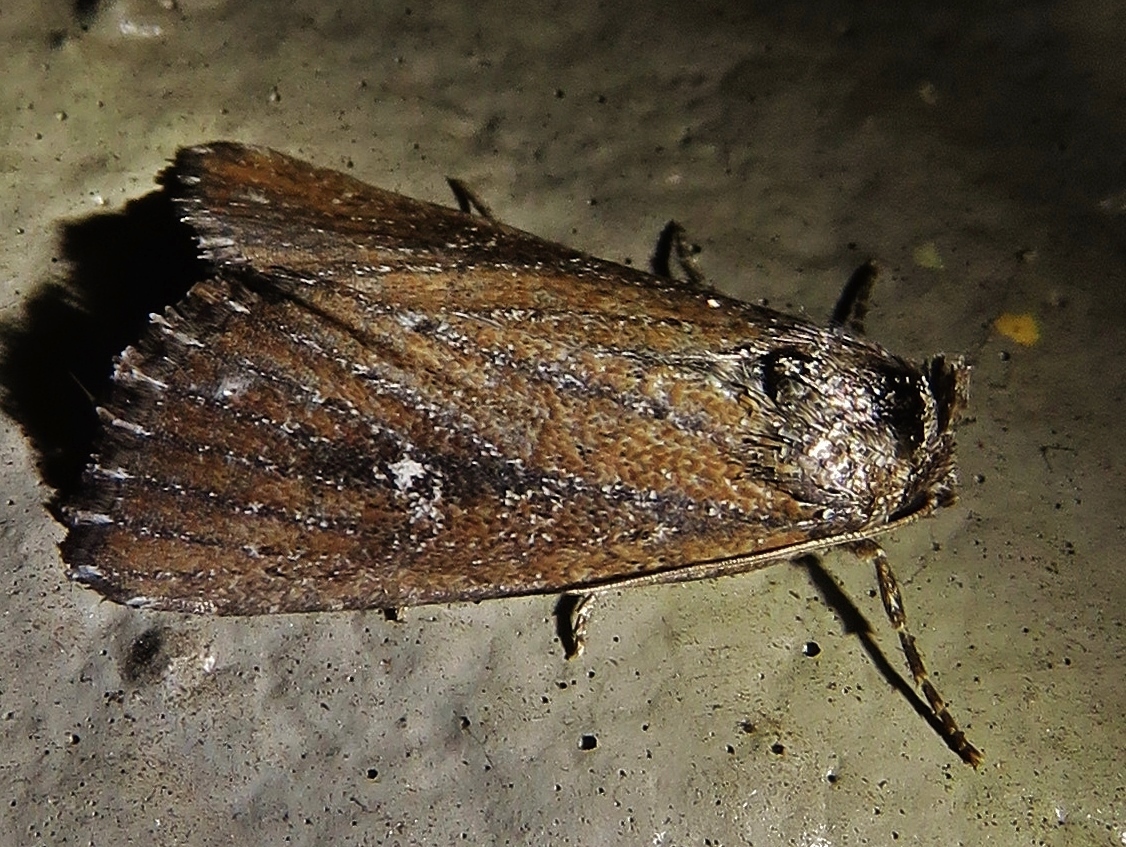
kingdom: Animalia
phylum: Arthropoda
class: Insecta
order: Lepidoptera
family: Noctuidae
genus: Condica
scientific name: Condica videns
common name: White-dotted groundling
